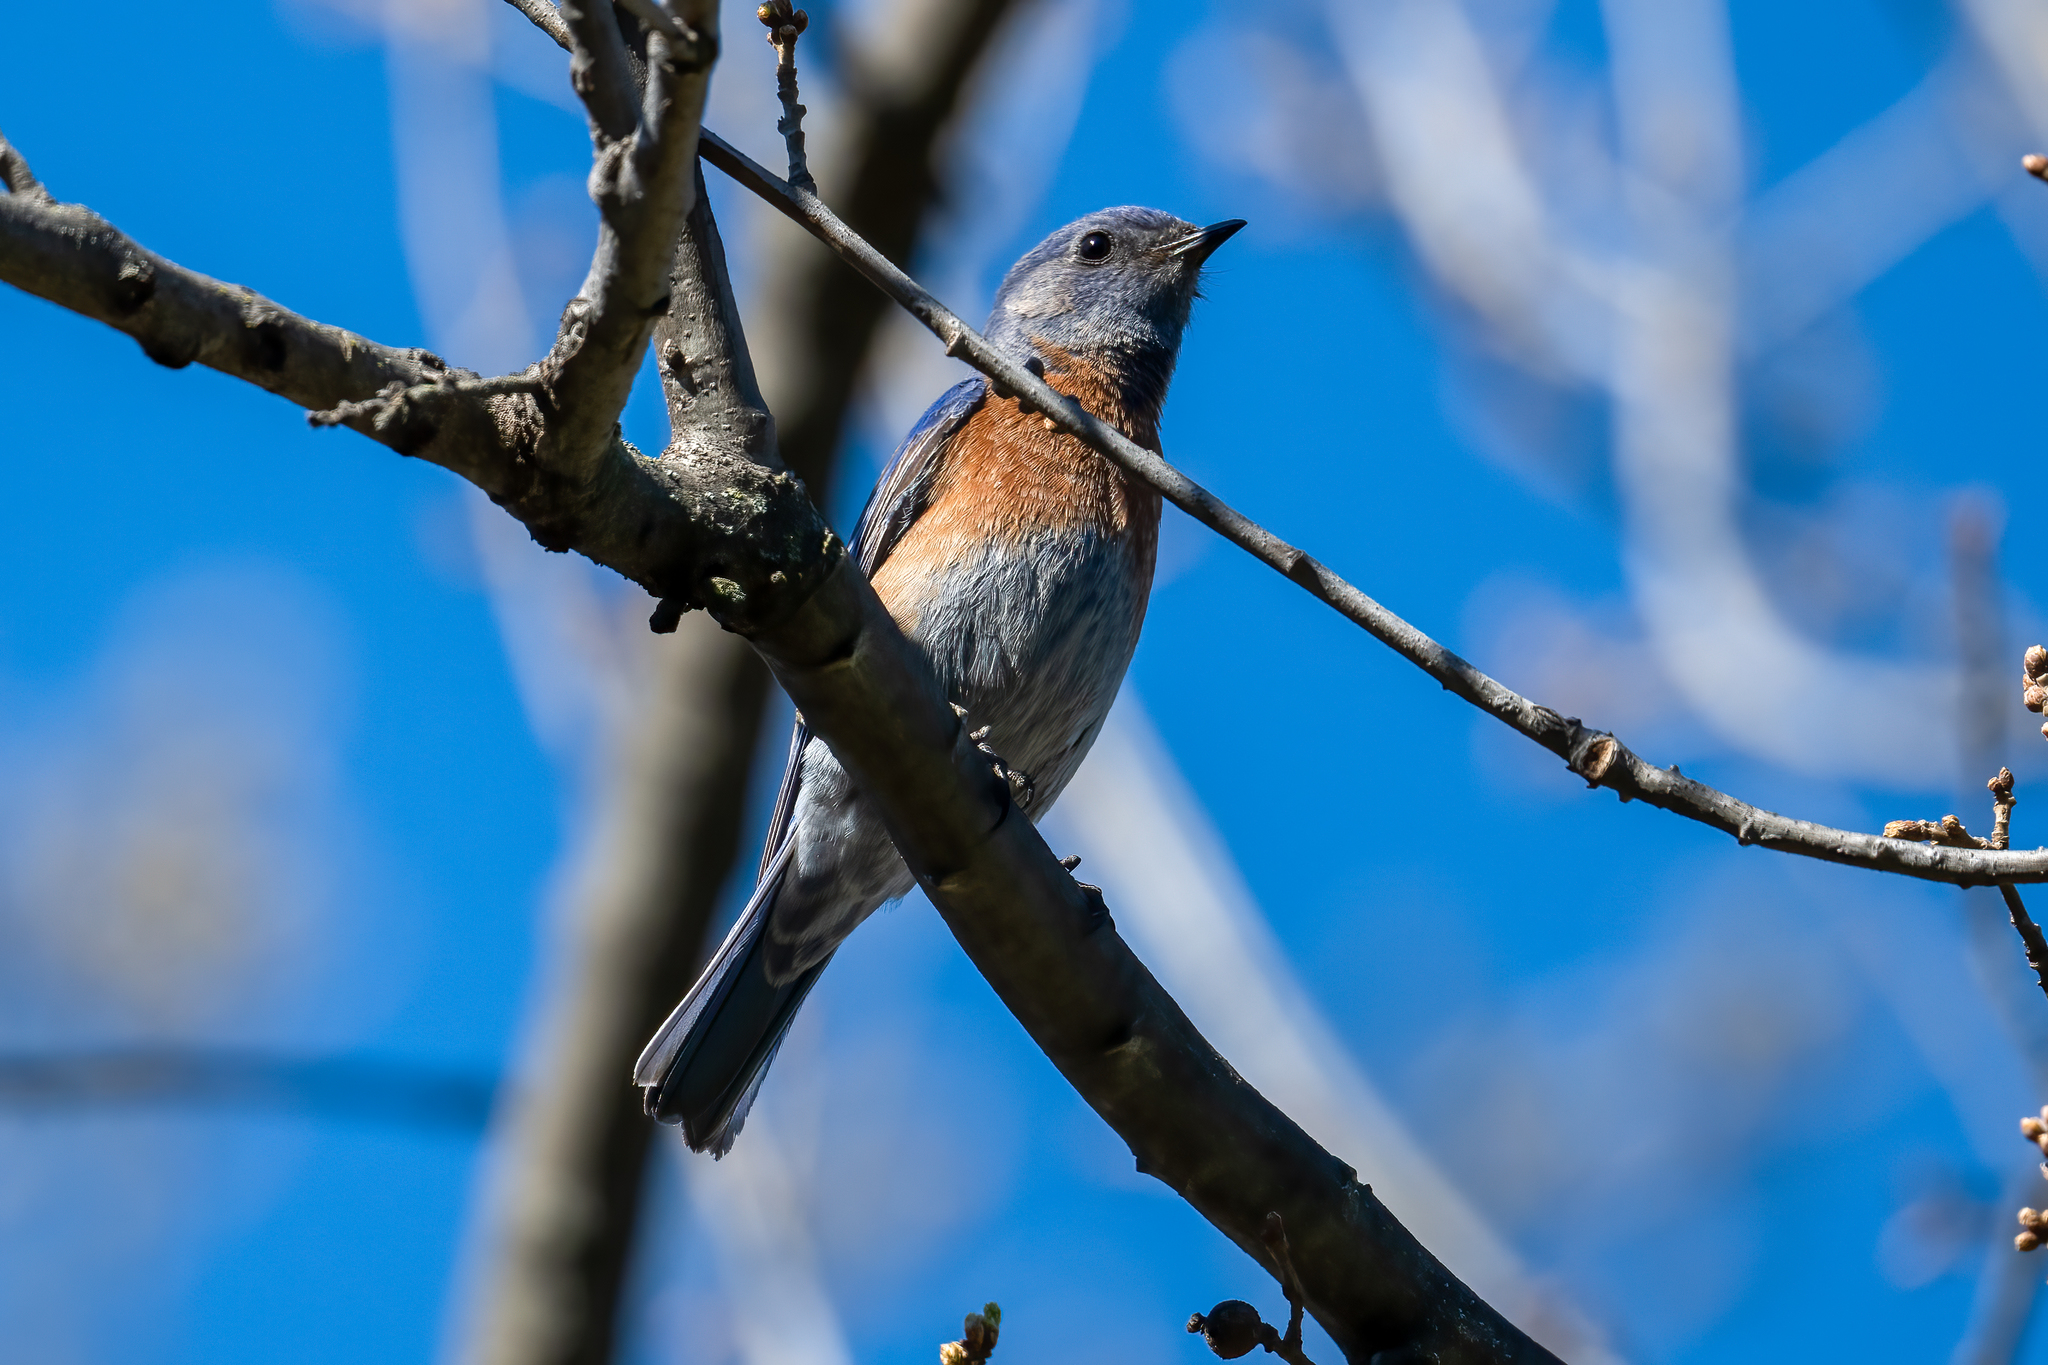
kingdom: Animalia
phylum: Chordata
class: Aves
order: Passeriformes
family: Turdidae
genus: Sialia
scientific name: Sialia mexicana
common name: Western bluebird
